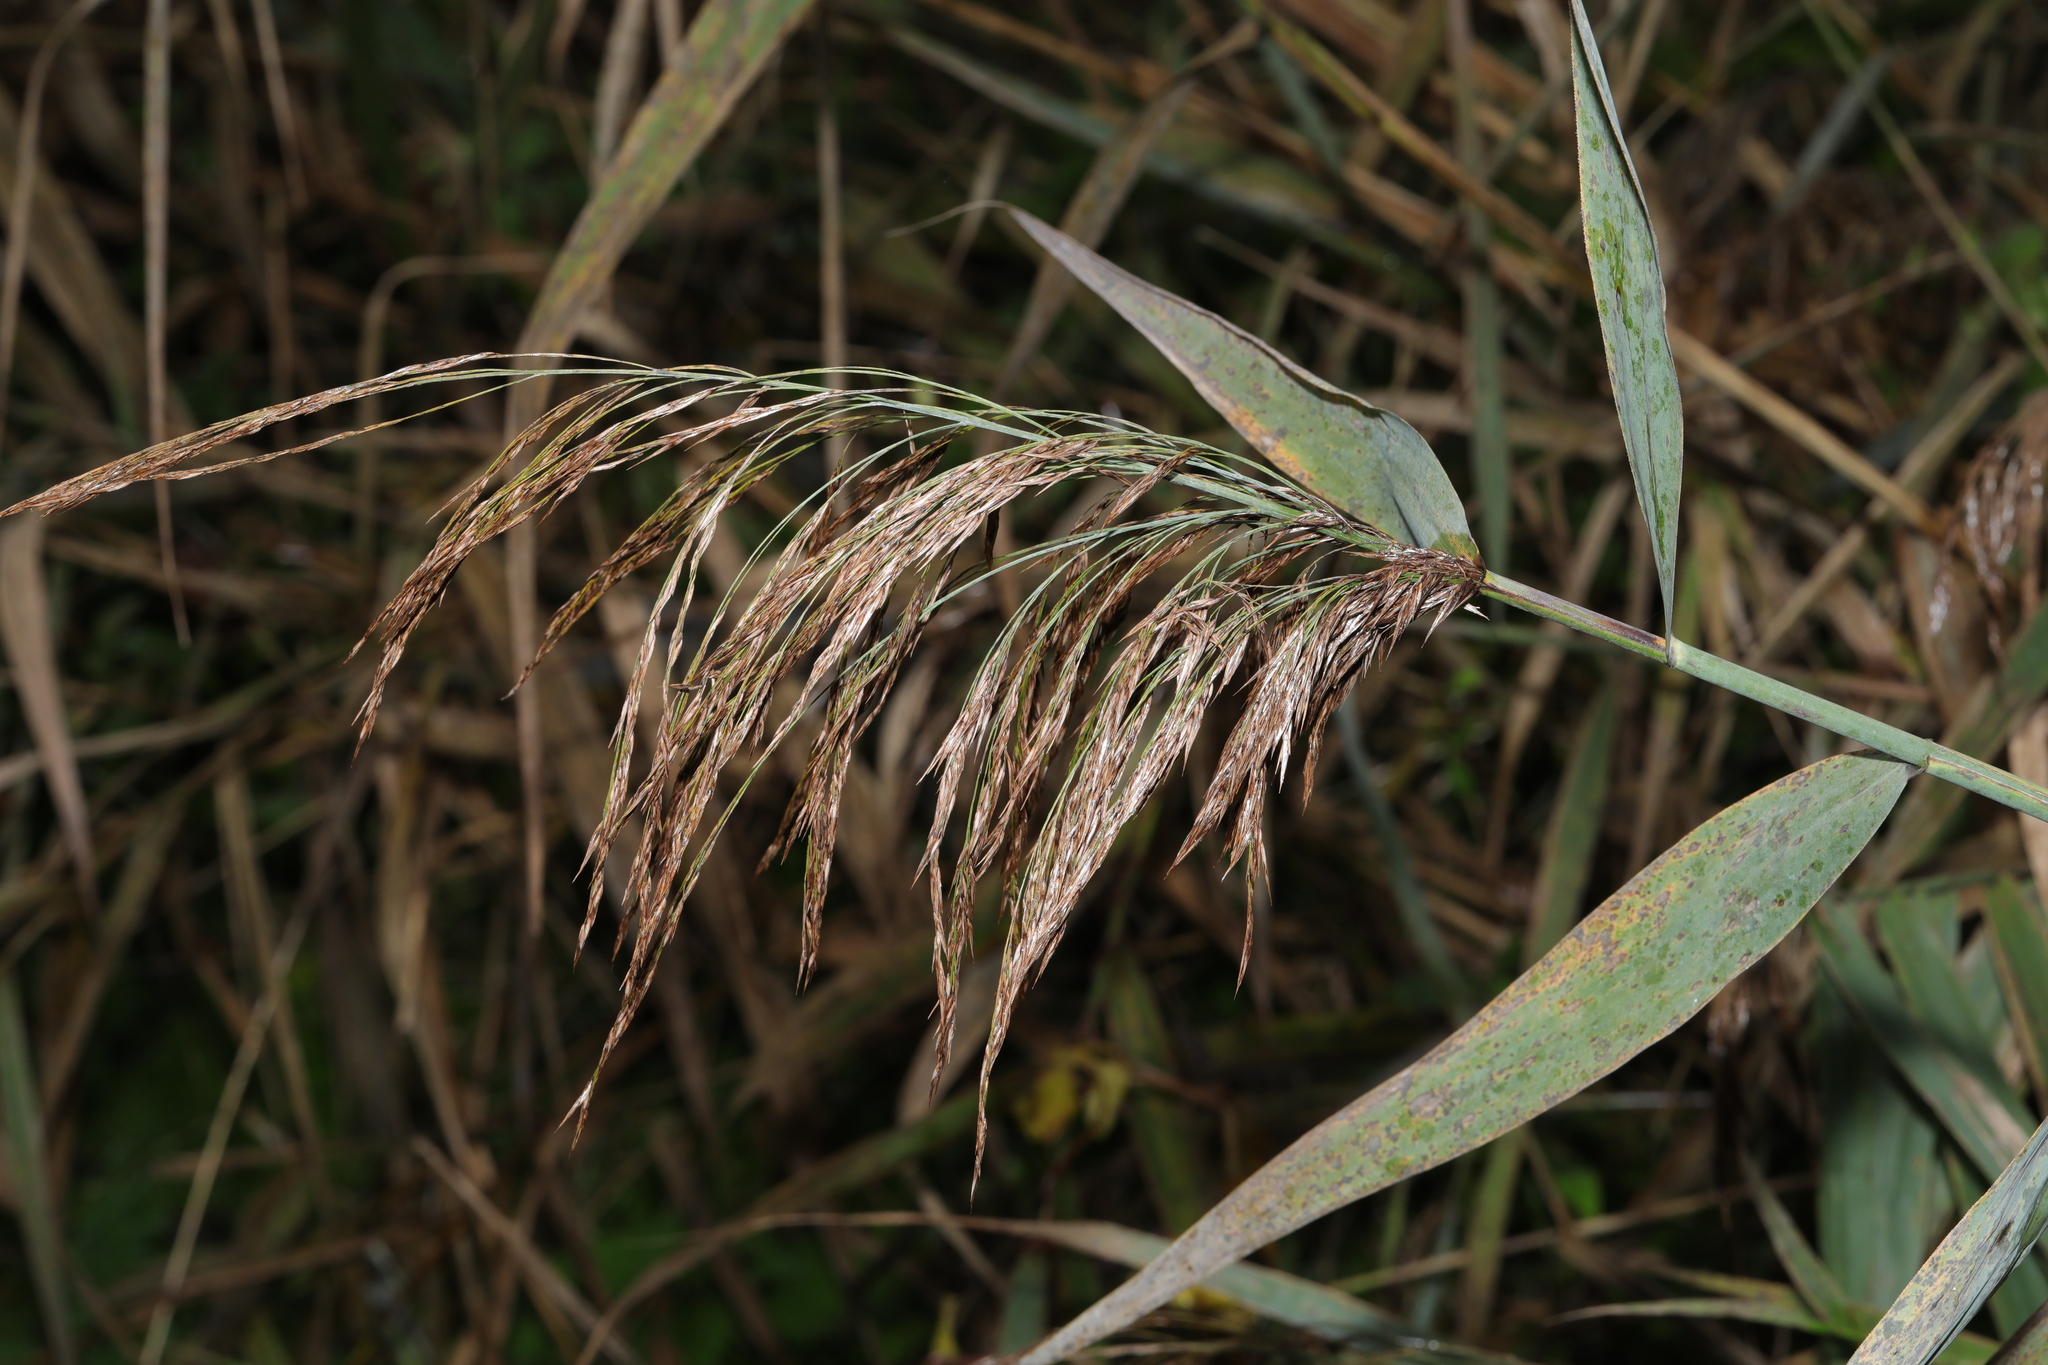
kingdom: Plantae
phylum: Tracheophyta
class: Liliopsida
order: Poales
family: Poaceae
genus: Phragmites
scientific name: Phragmites australis
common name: Common reed
